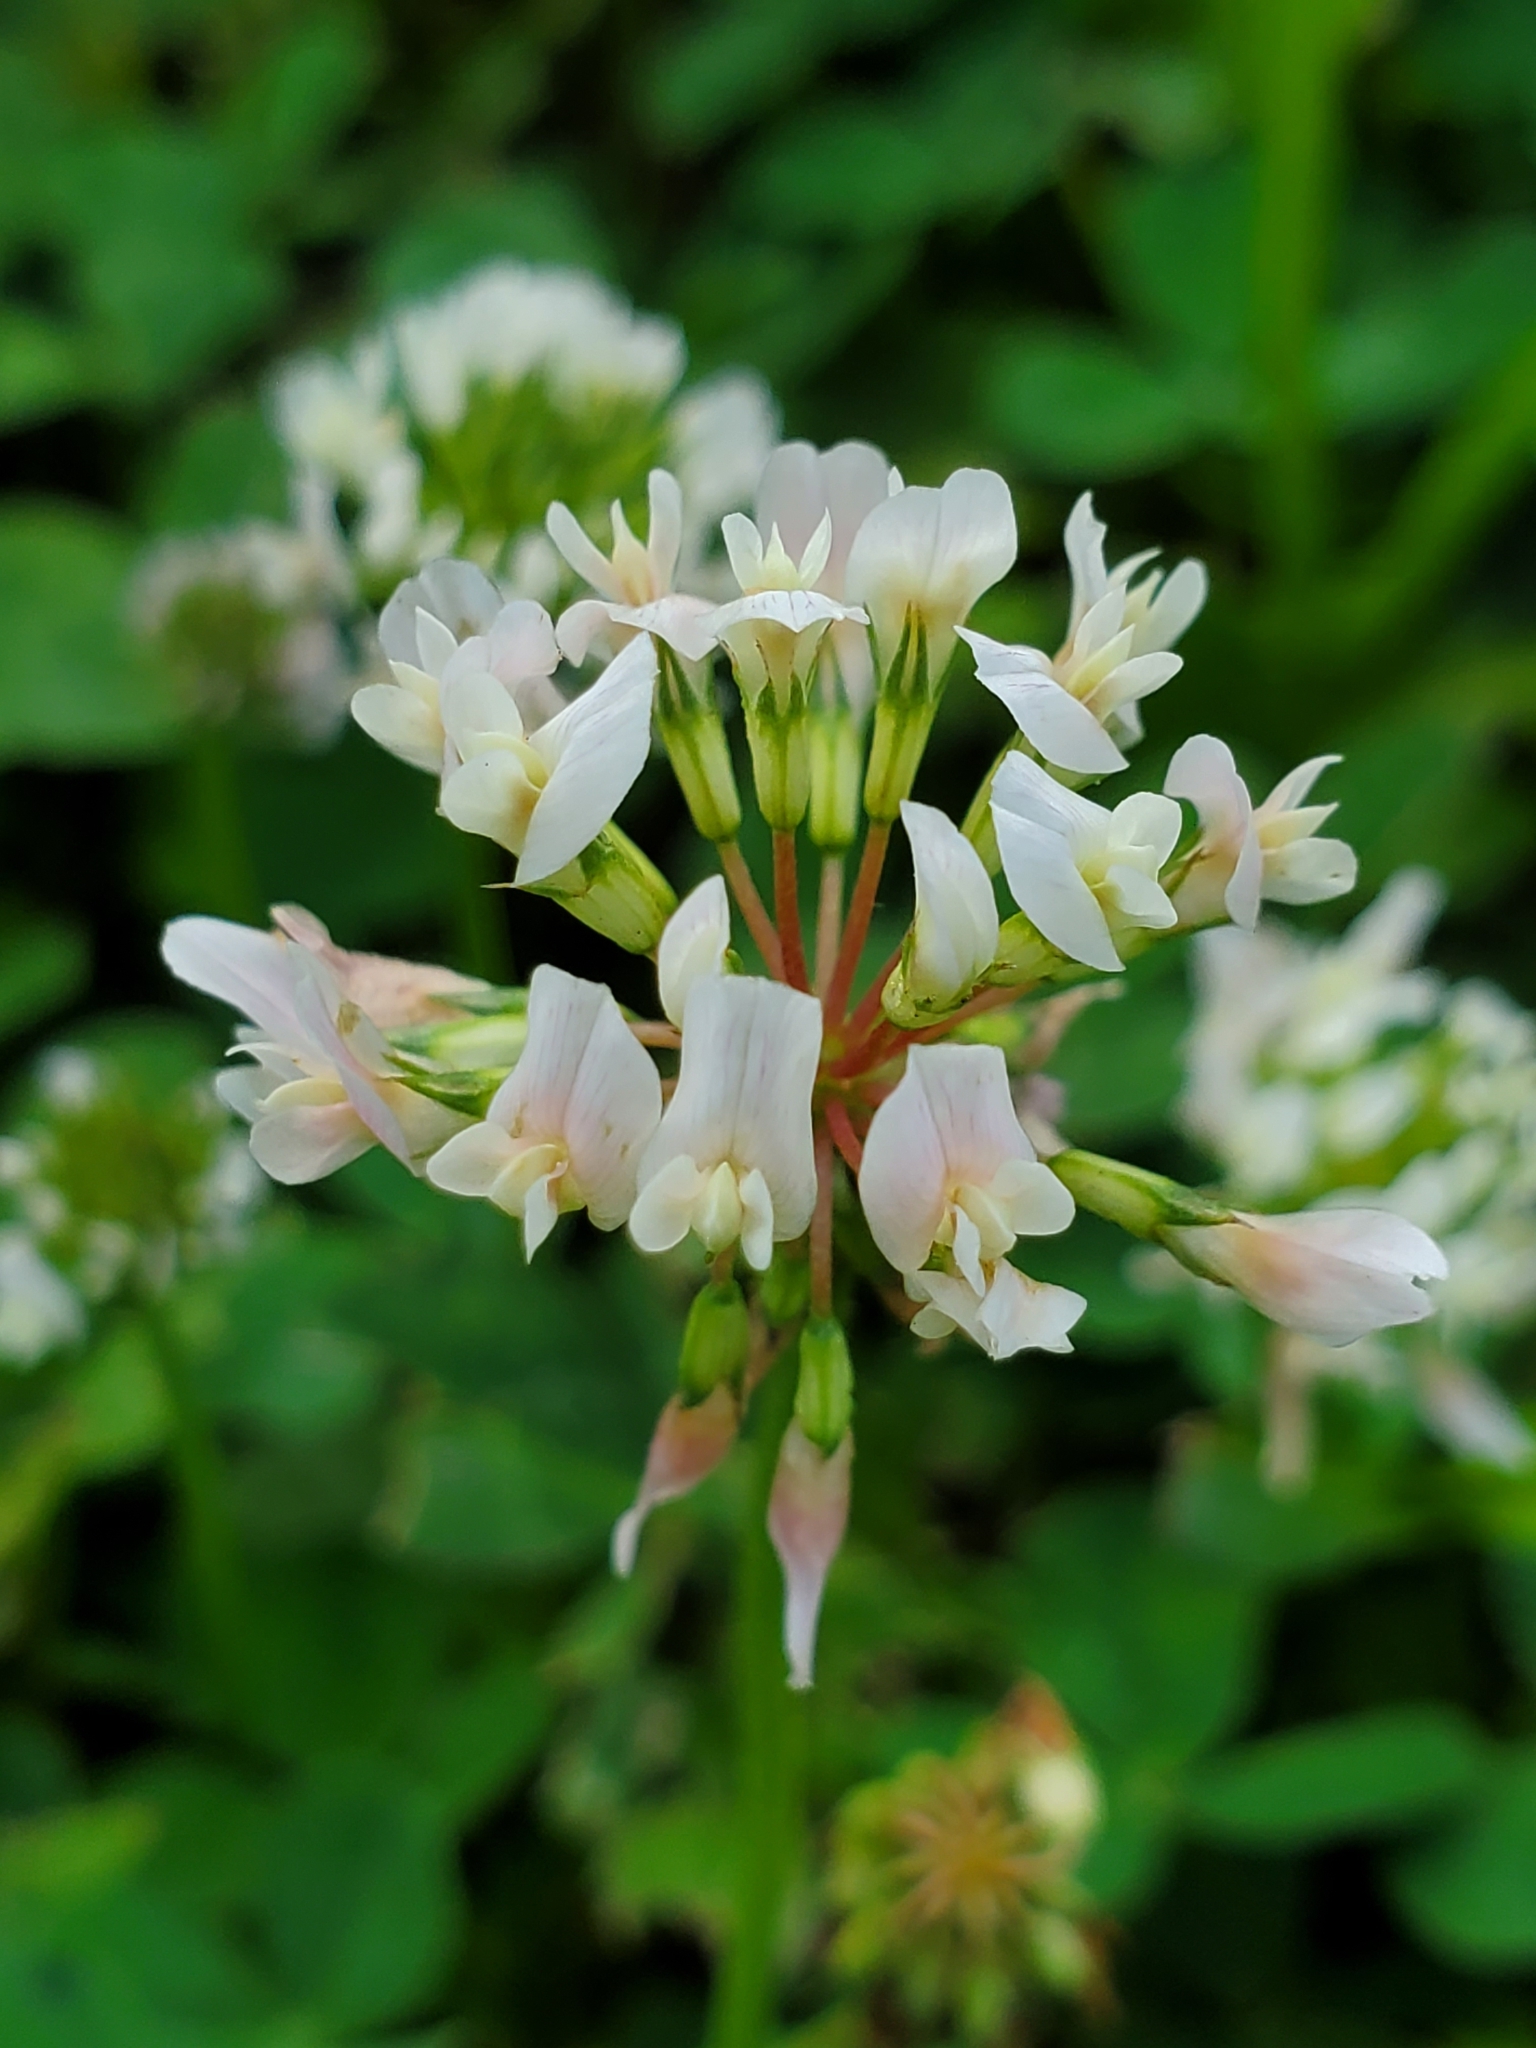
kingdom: Plantae
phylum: Tracheophyta
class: Magnoliopsida
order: Fabales
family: Fabaceae
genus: Trifolium
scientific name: Trifolium repens
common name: White clover
